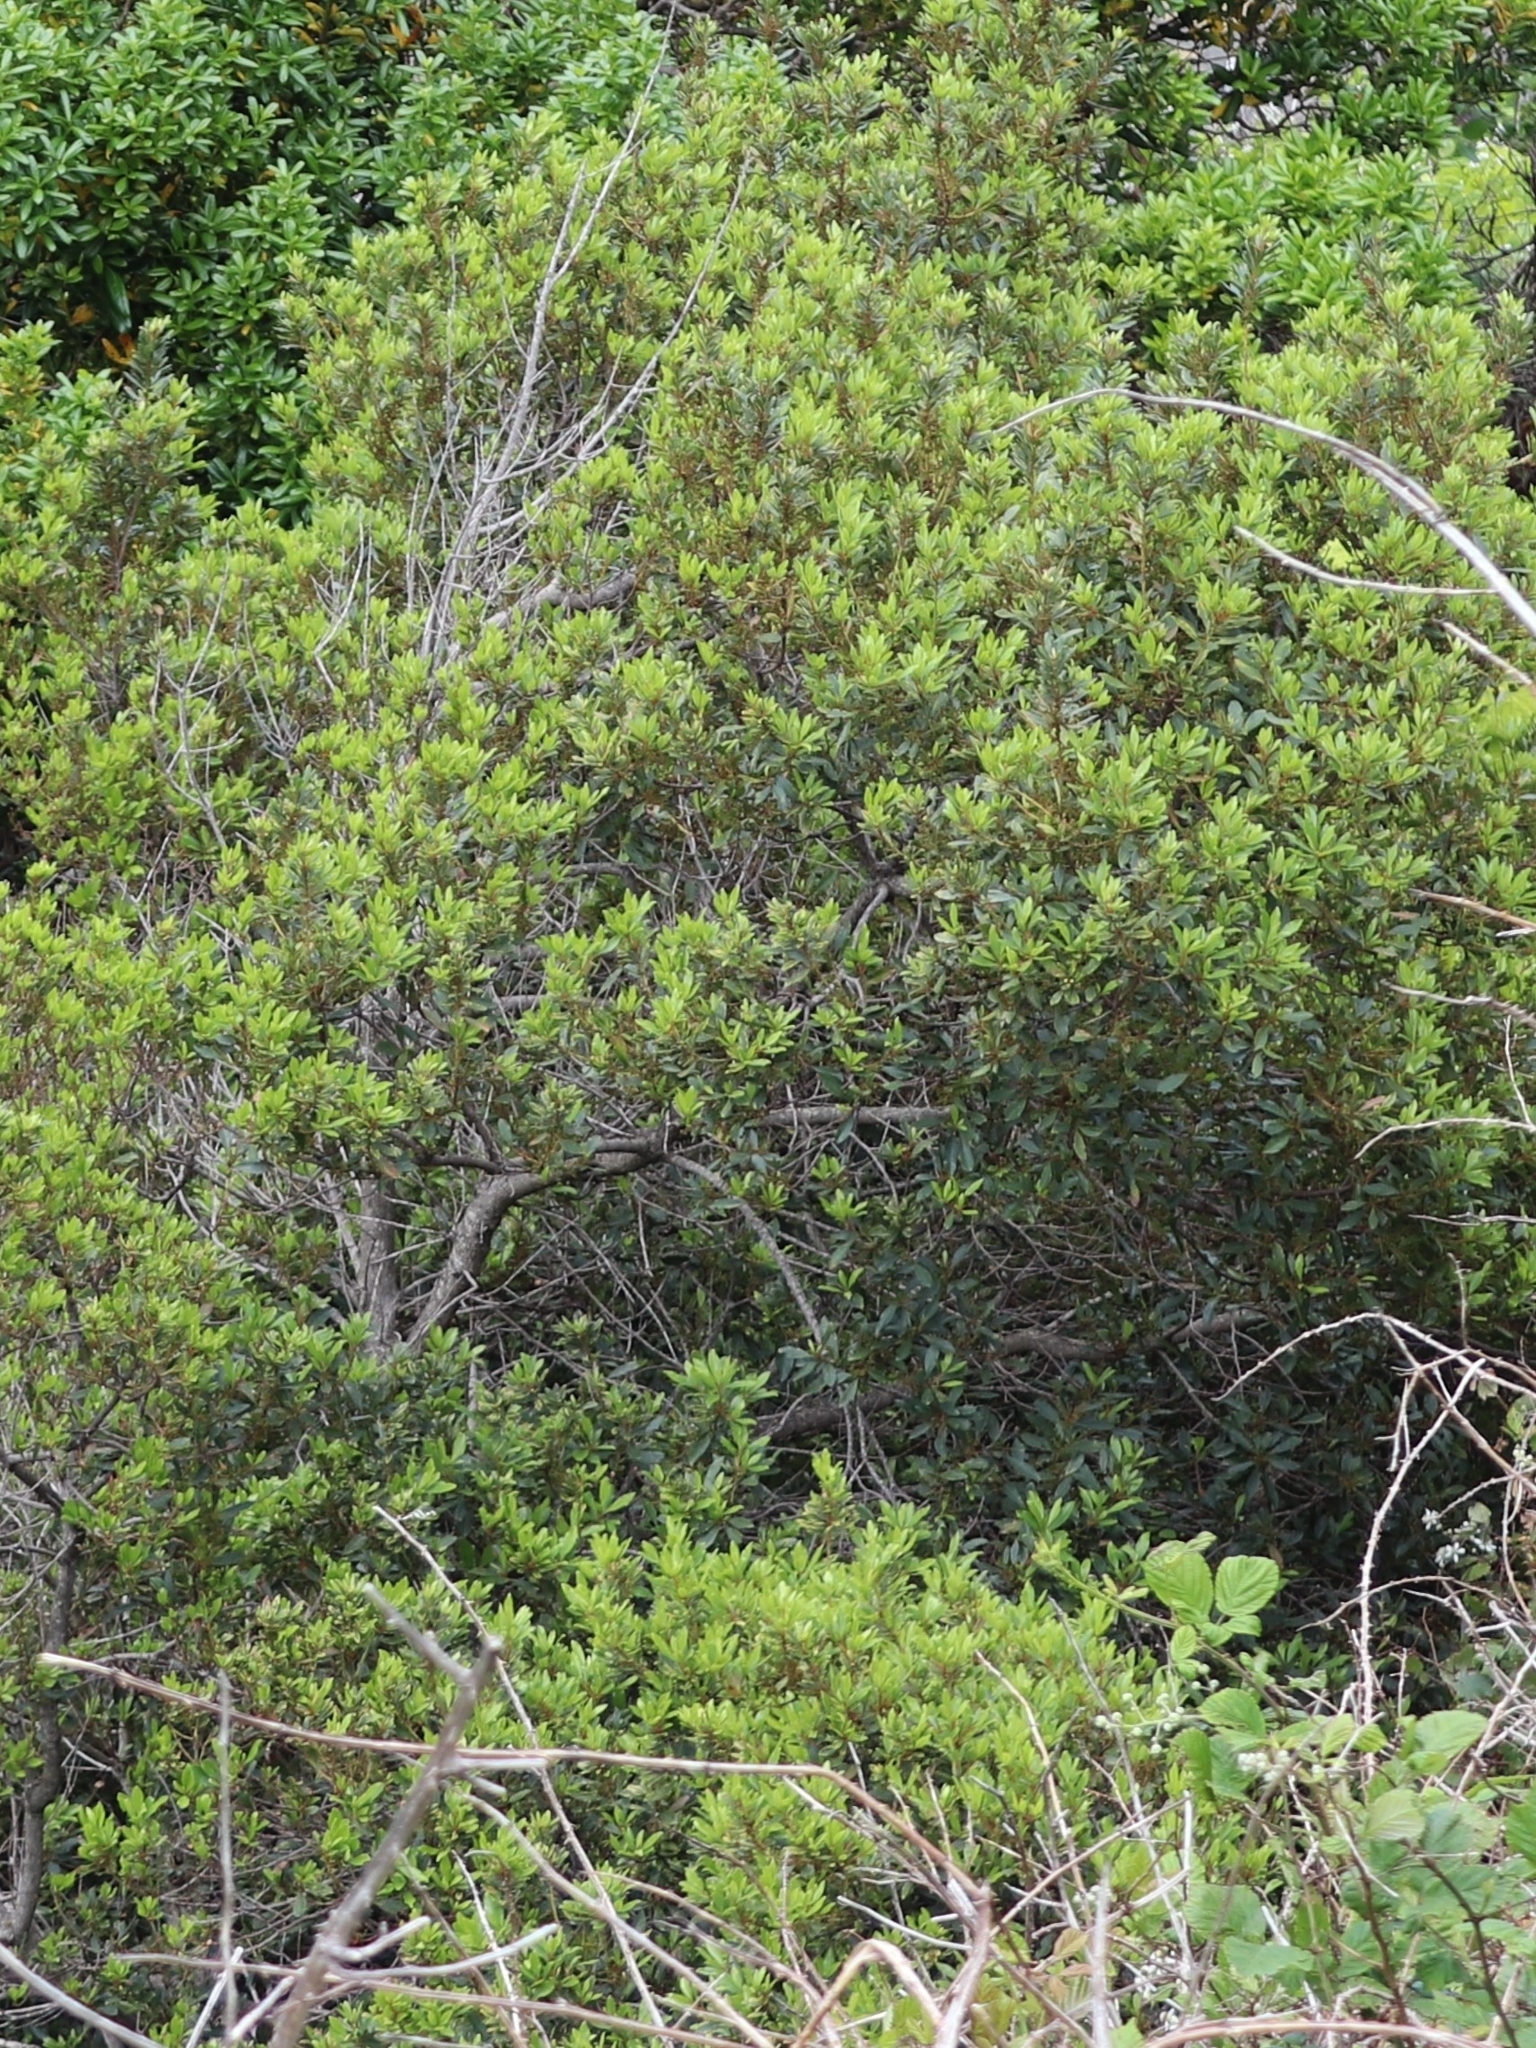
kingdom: Plantae
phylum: Tracheophyta
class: Magnoliopsida
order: Fagales
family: Myricaceae
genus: Morella
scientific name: Morella faya
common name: Firetree
